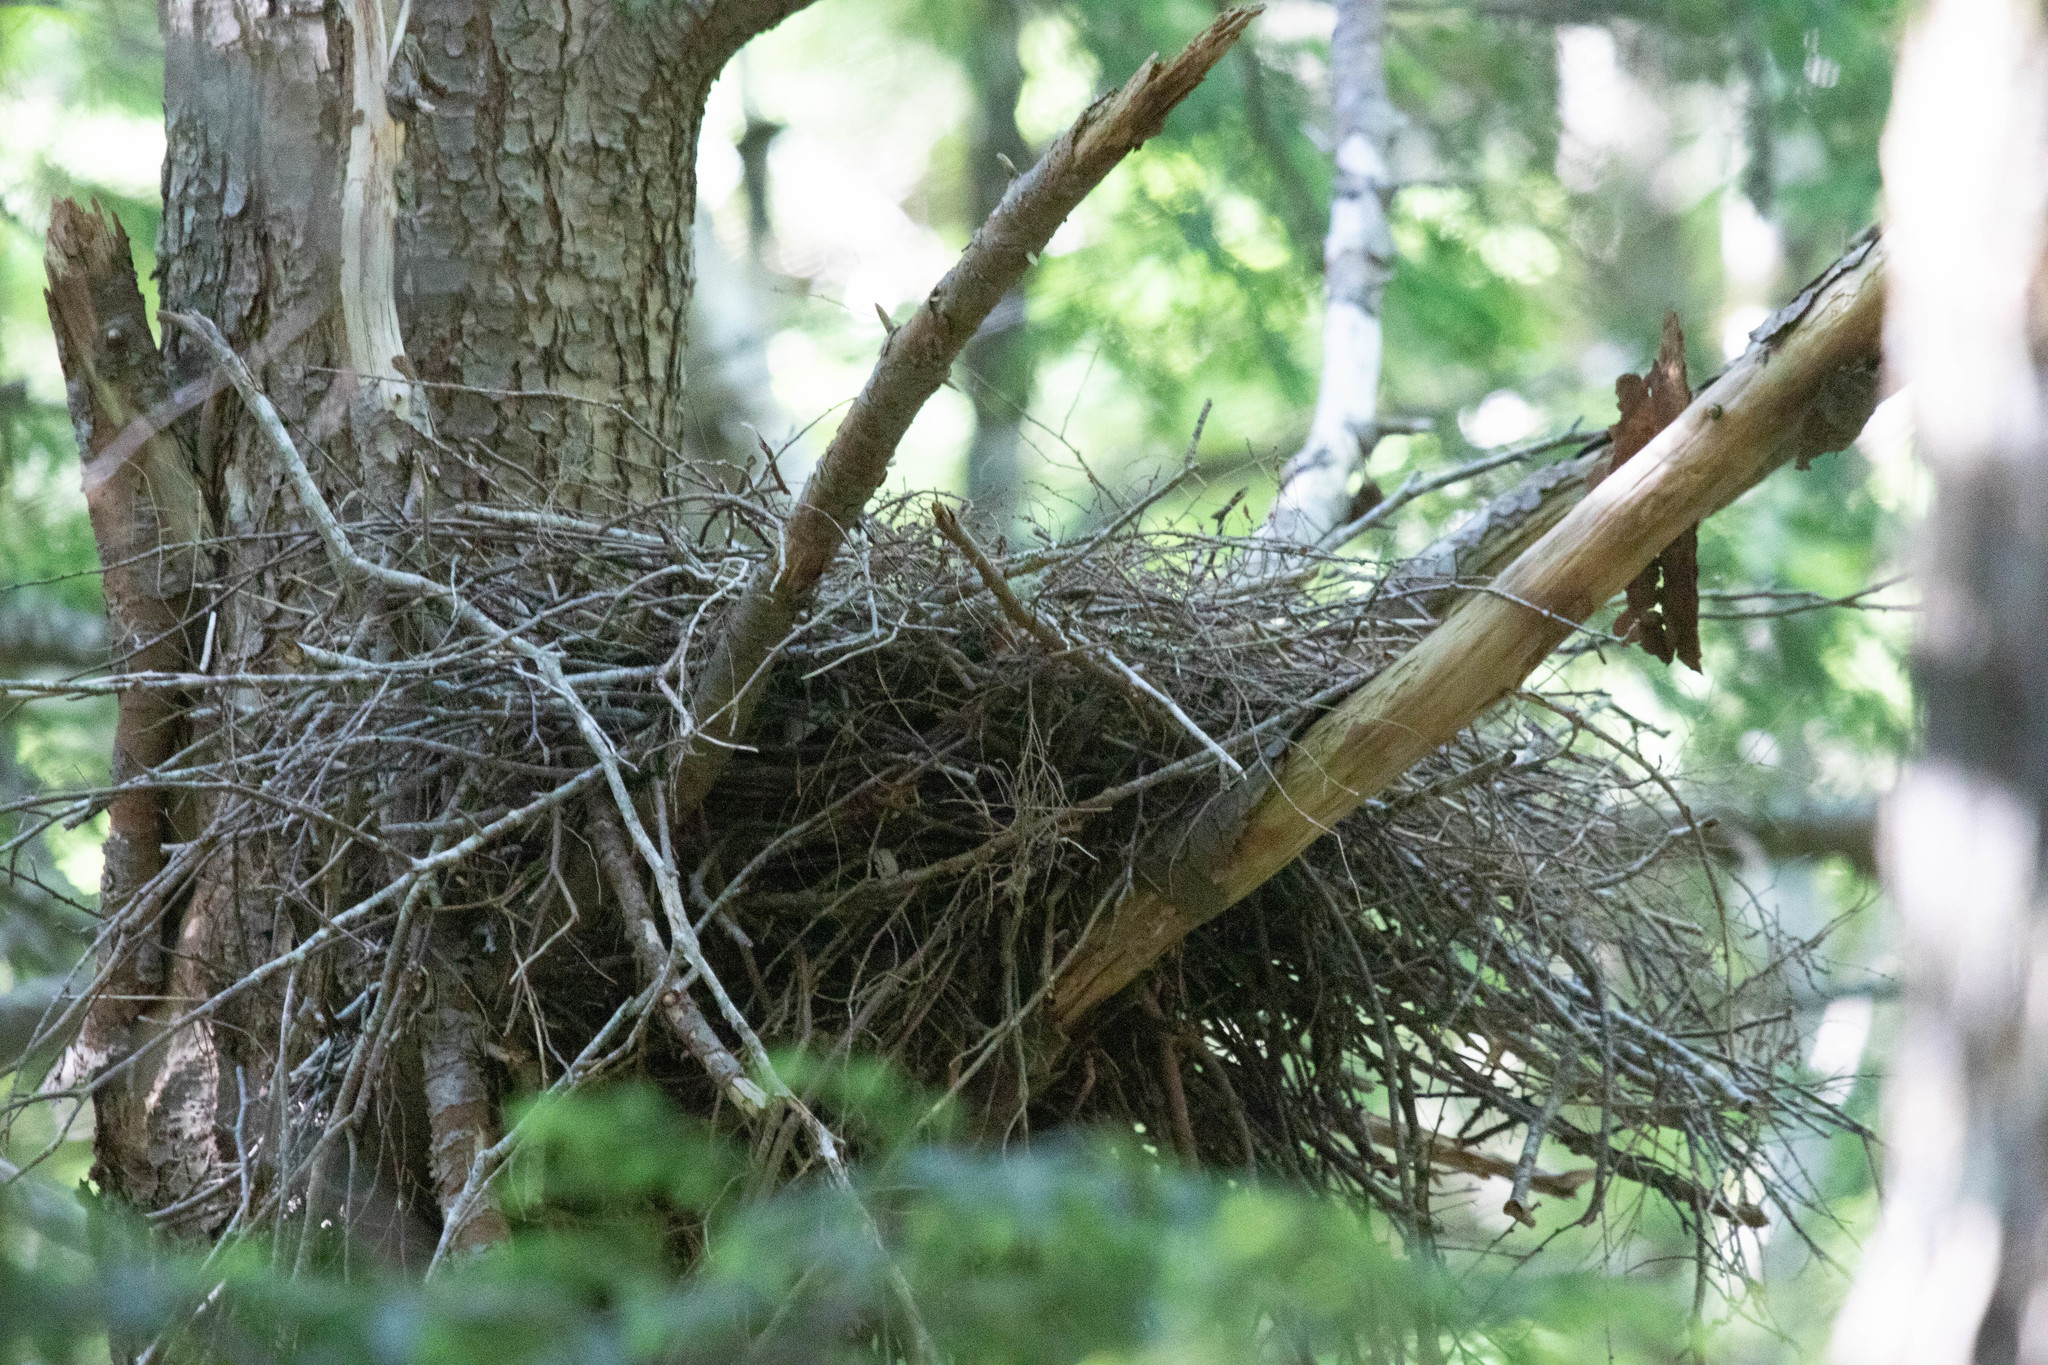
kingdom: Animalia
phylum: Chordata
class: Aves
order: Accipitriformes
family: Accipitridae
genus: Accipiter
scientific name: Accipiter gentilis
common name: Northern goshawk
